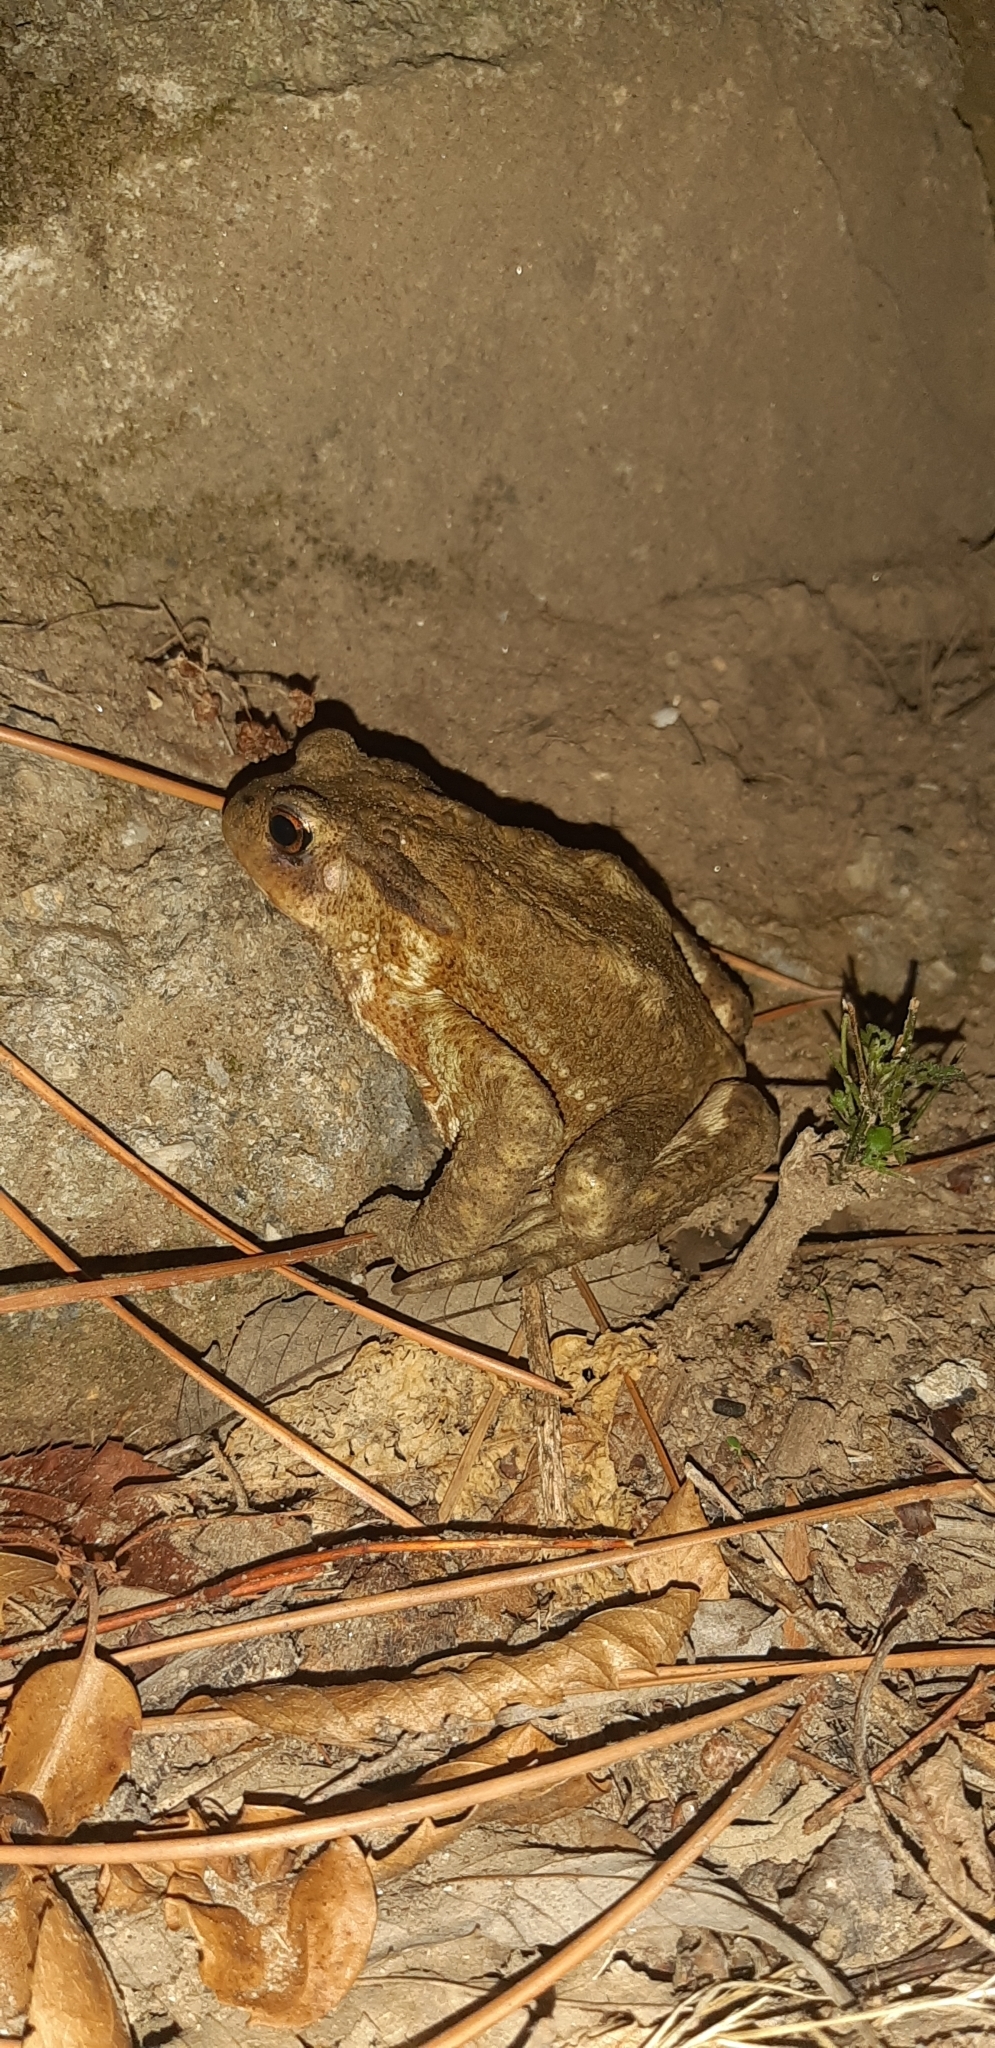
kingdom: Animalia
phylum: Chordata
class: Amphibia
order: Anura
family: Bufonidae
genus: Bufo
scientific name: Bufo bufo
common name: Common toad
